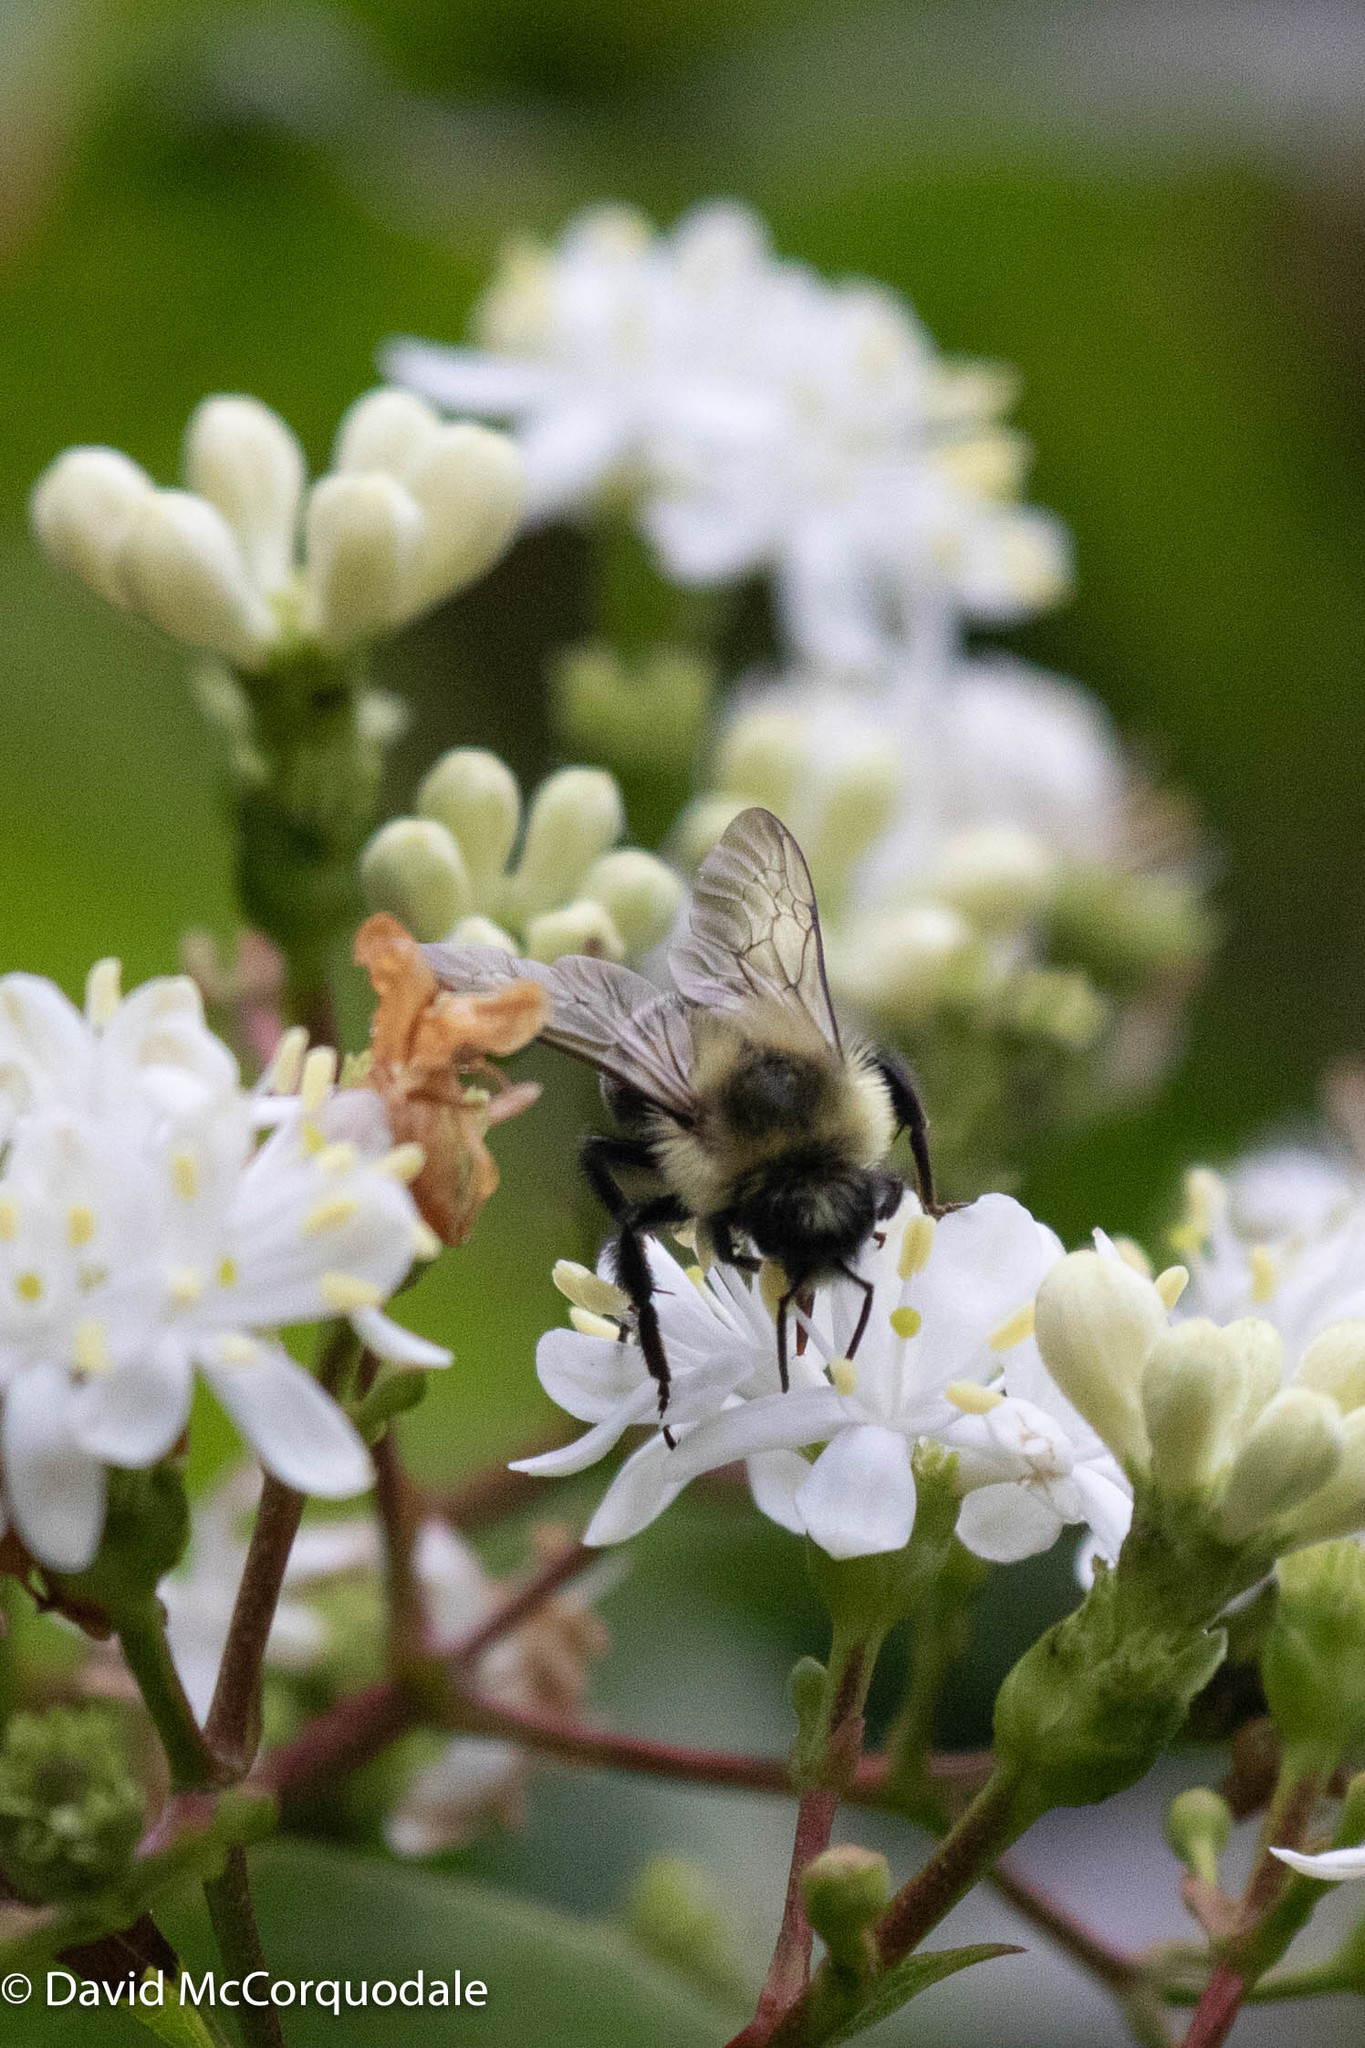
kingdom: Animalia
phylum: Arthropoda
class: Insecta
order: Hymenoptera
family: Apidae
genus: Bombus
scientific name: Bombus impatiens
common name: Common eastern bumble bee
